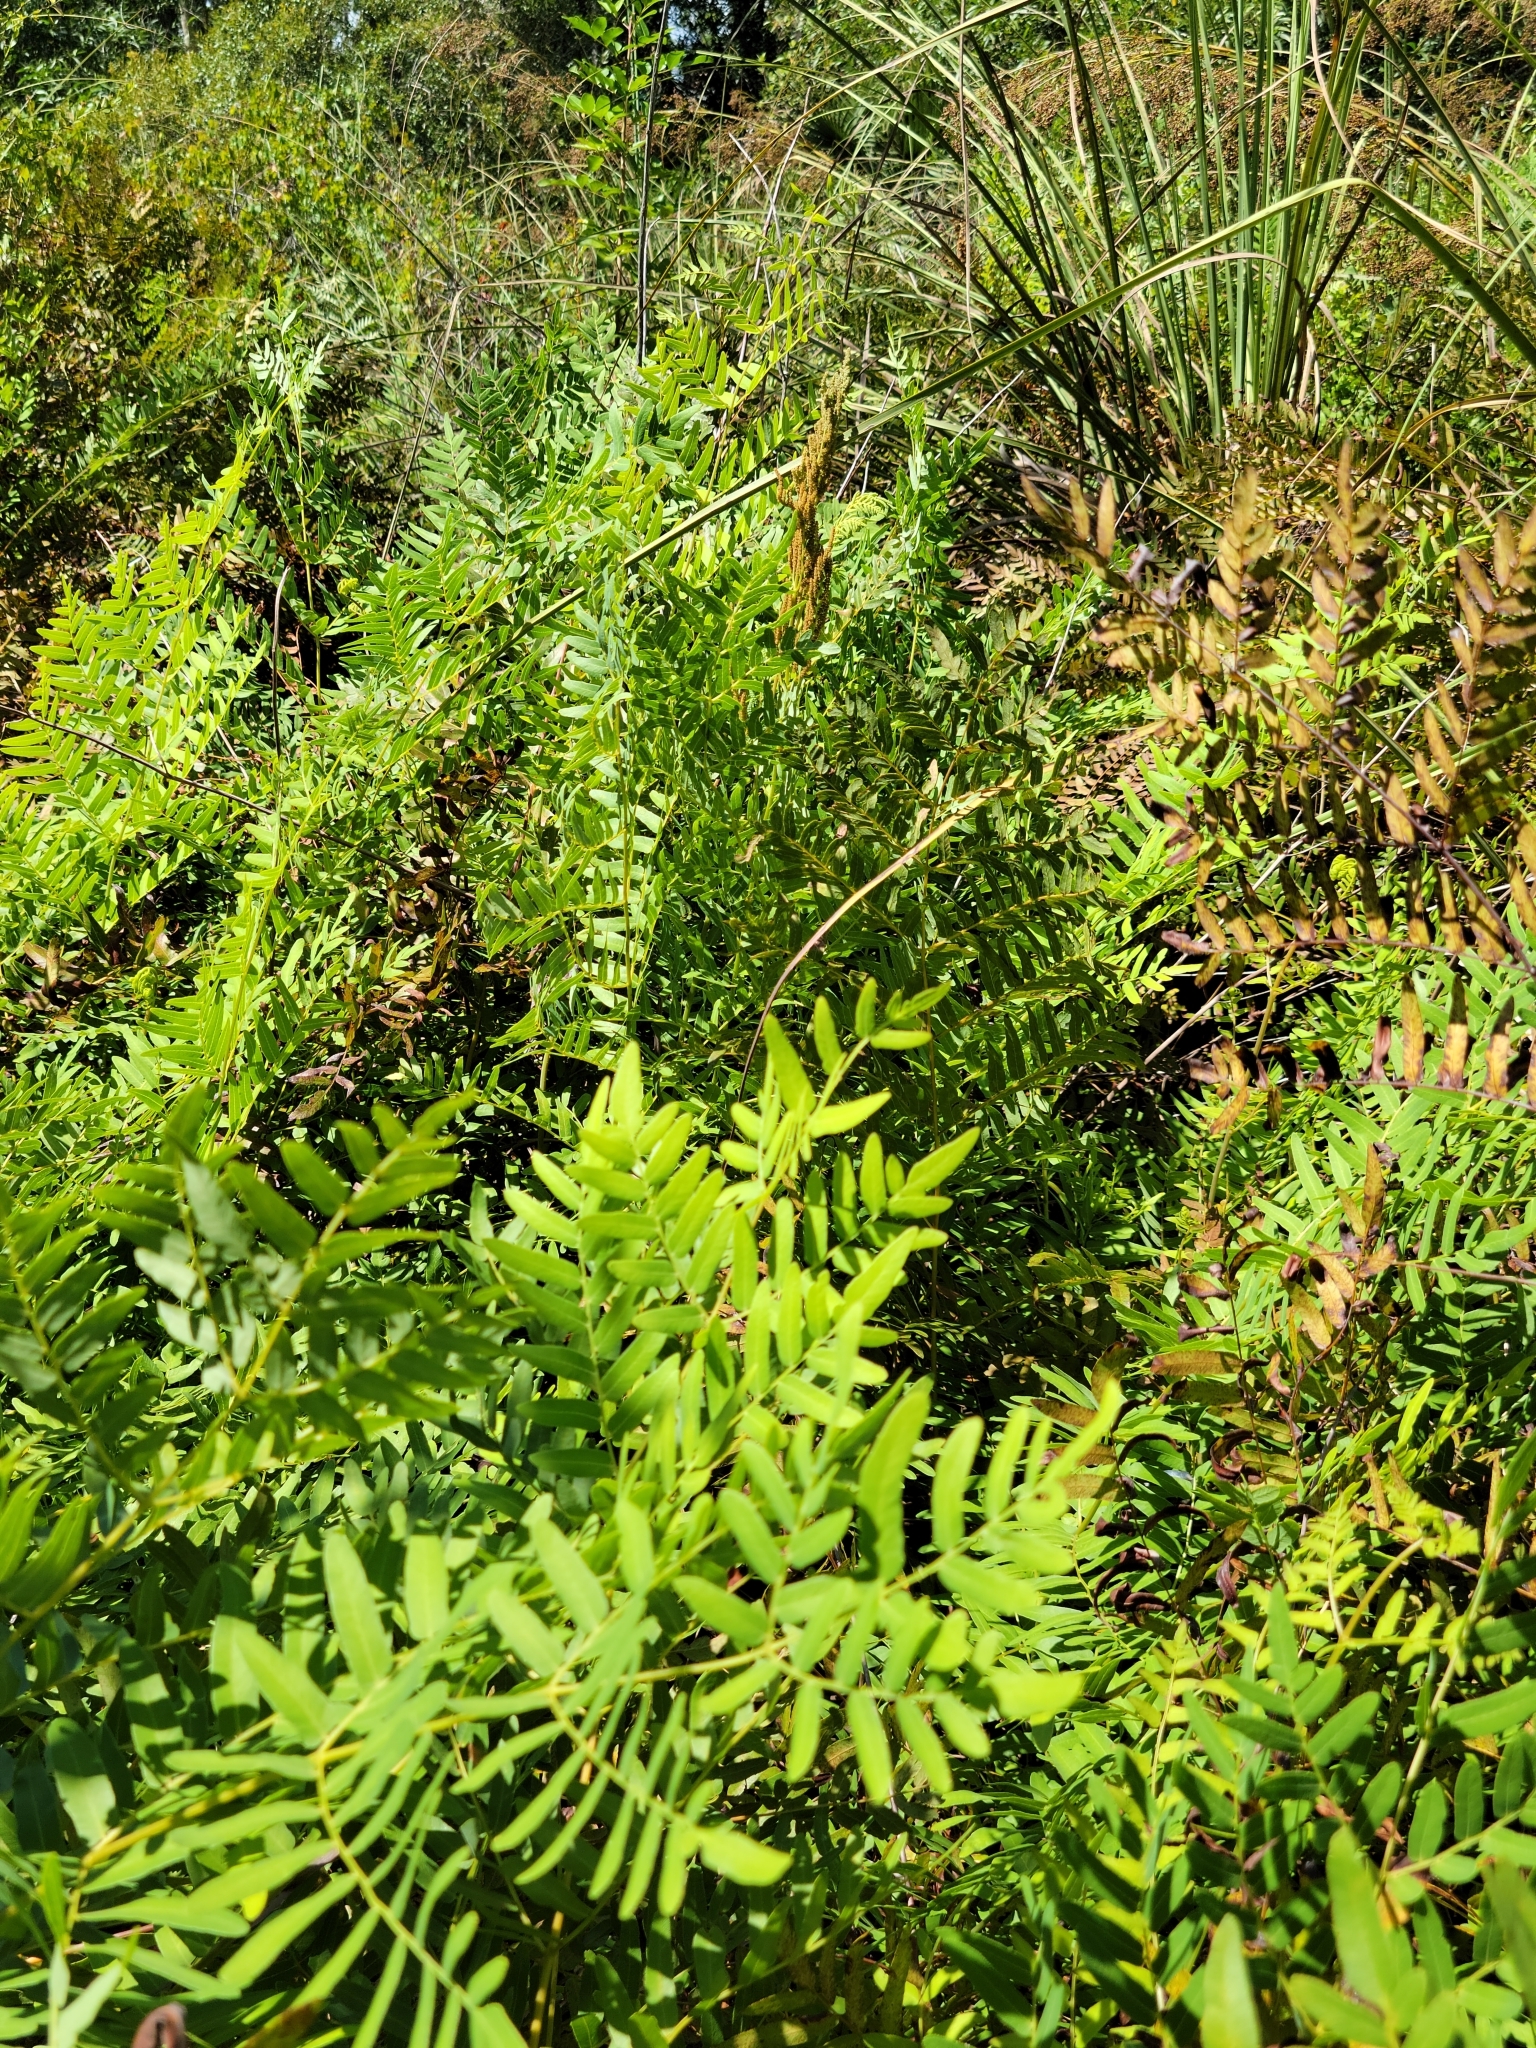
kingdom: Plantae
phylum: Tracheophyta
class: Polypodiopsida
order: Osmundales
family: Osmundaceae
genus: Osmunda
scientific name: Osmunda spectabilis
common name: American royal fern
